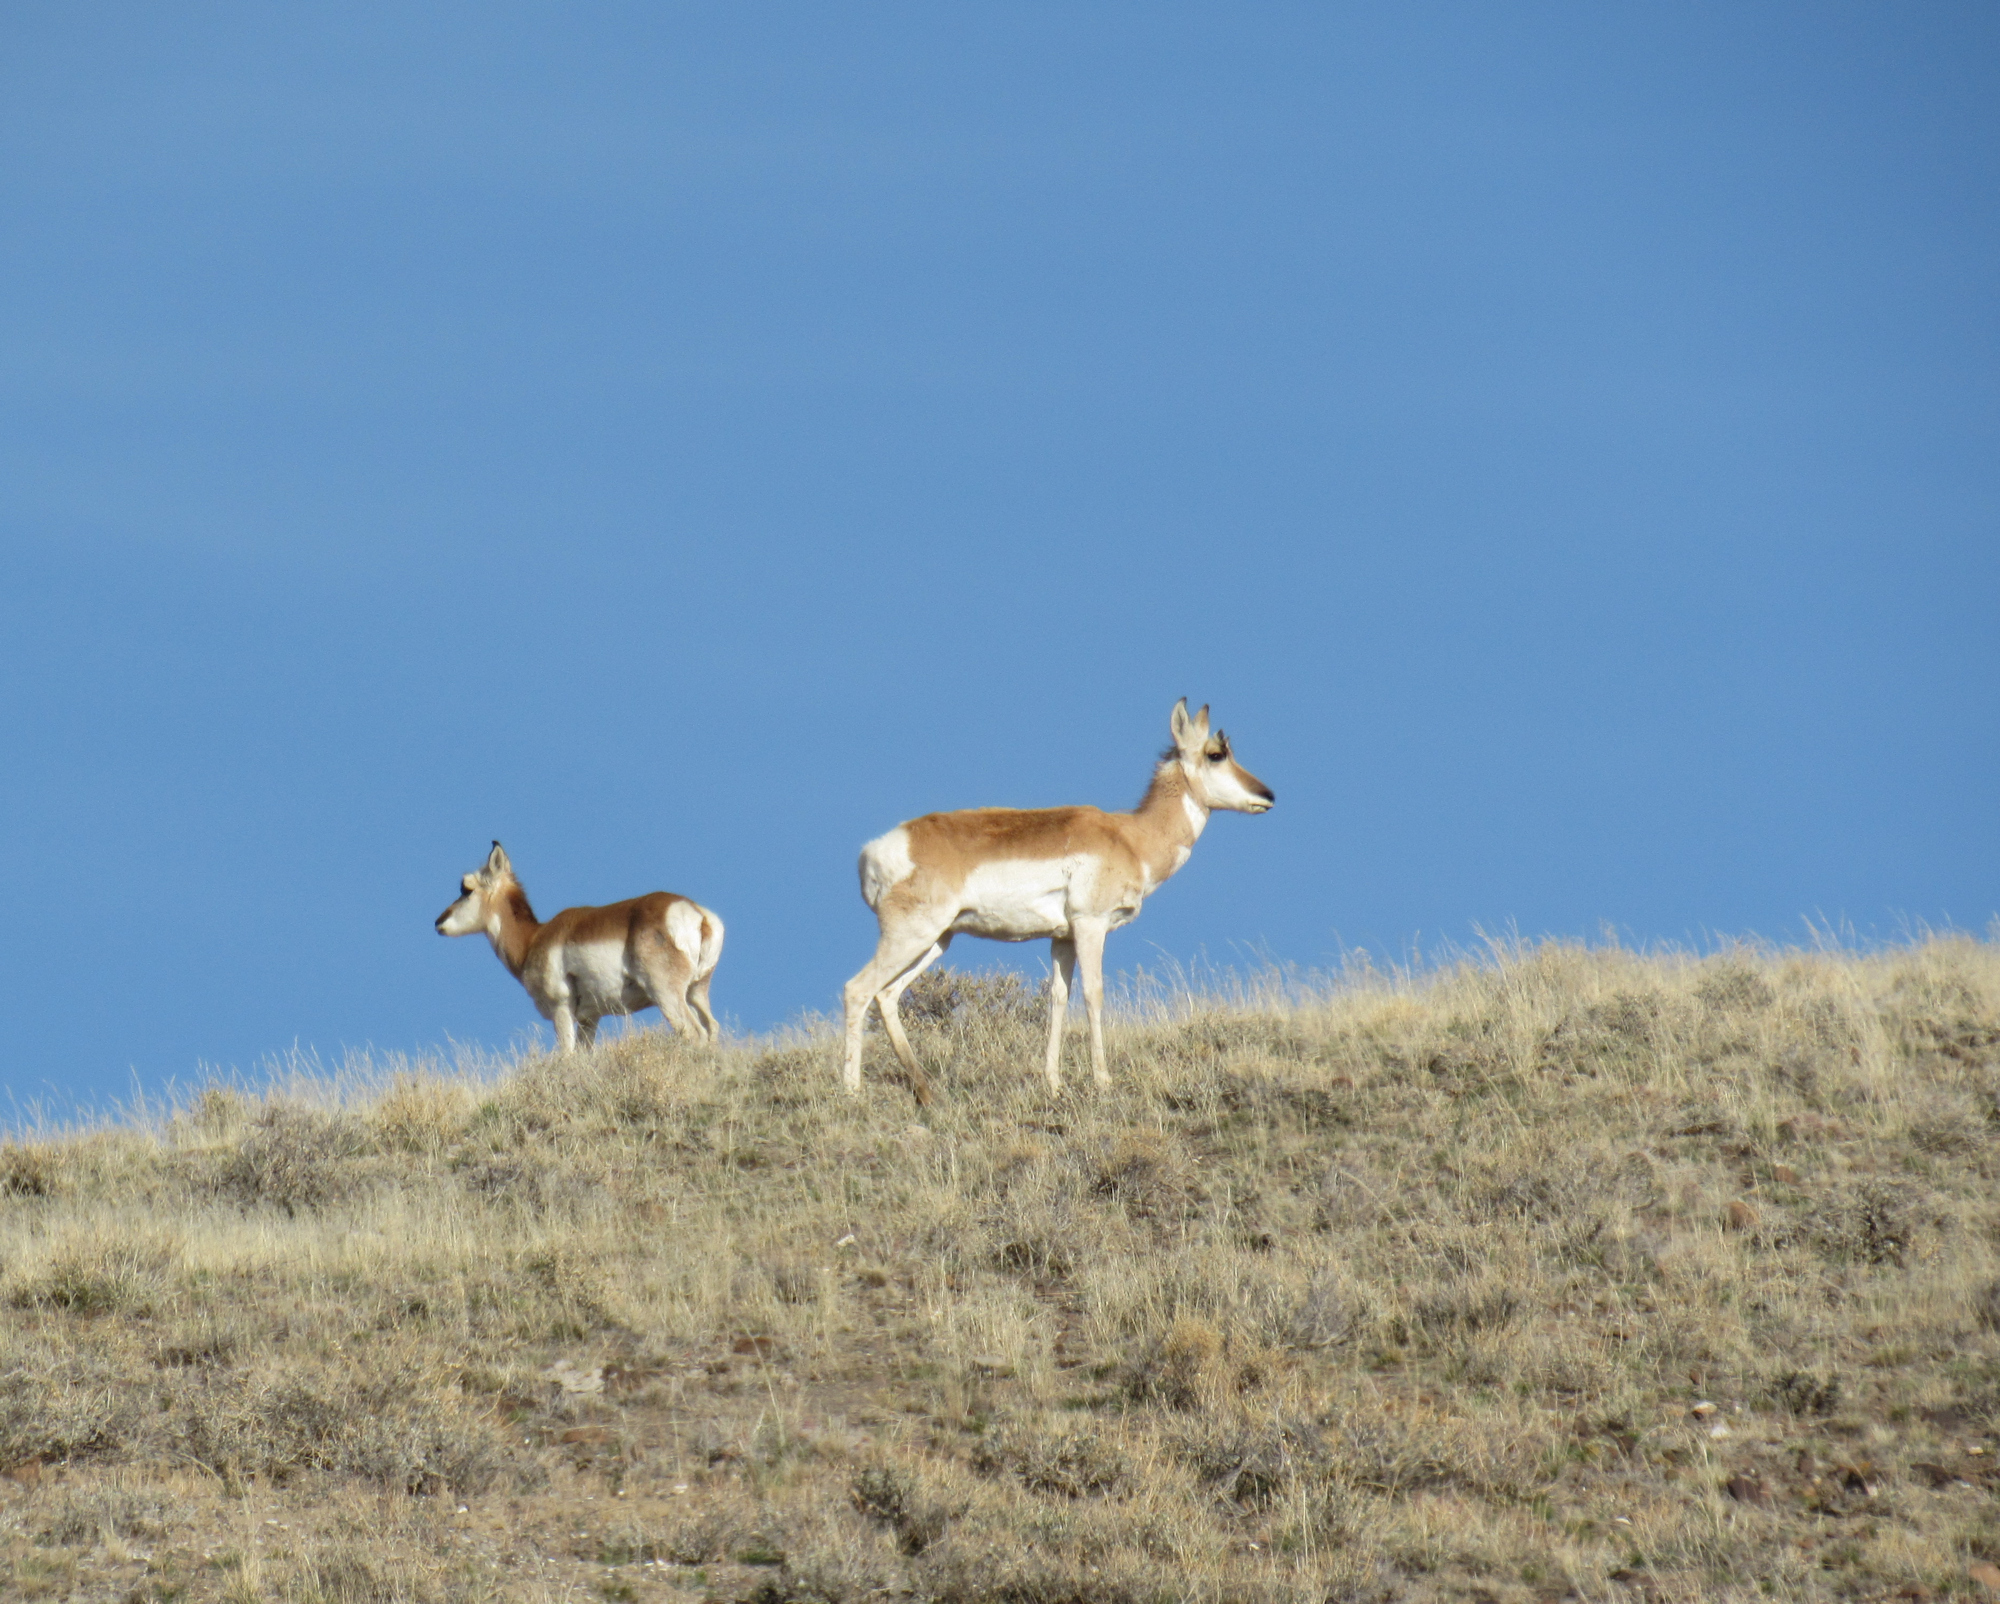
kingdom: Animalia
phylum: Chordata
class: Mammalia
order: Artiodactyla
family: Antilocapridae
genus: Antilocapra
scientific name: Antilocapra americana
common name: Pronghorn
